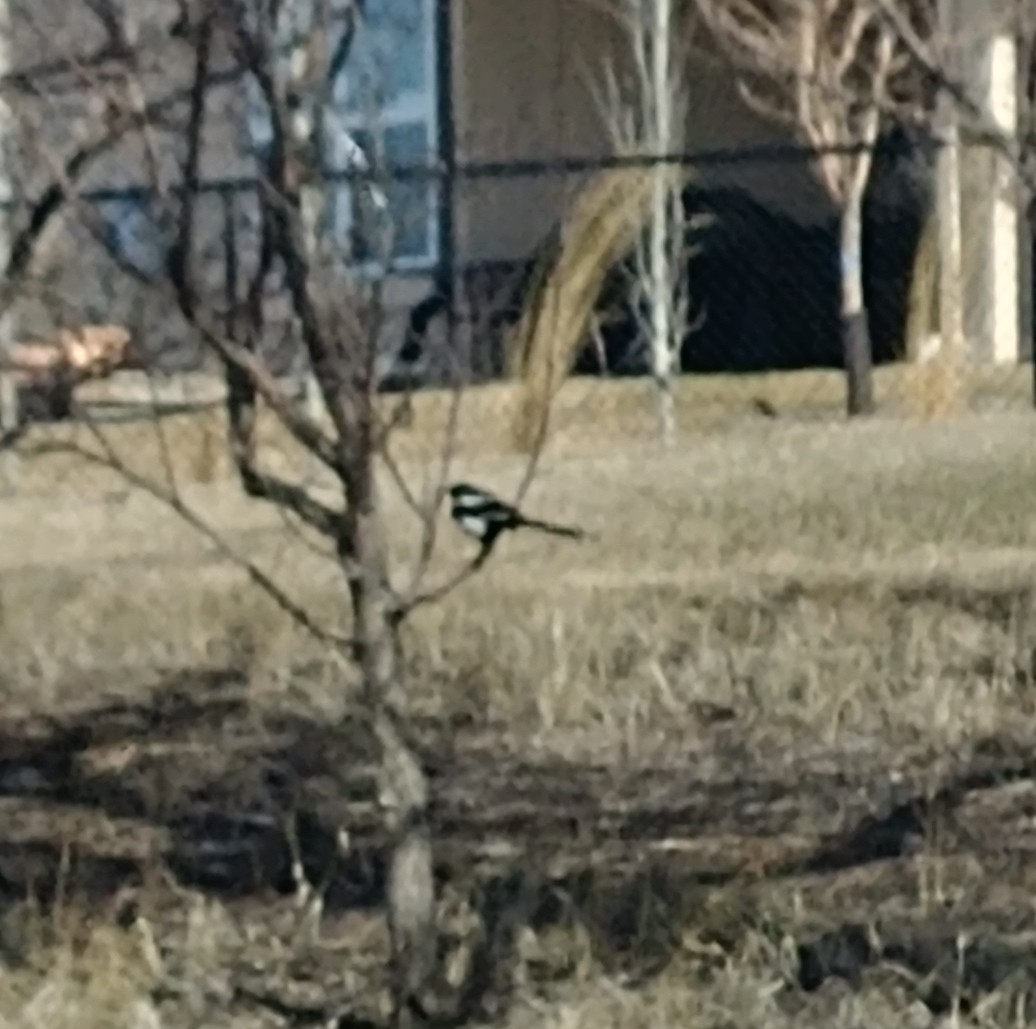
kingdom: Animalia
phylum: Chordata
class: Aves
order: Passeriformes
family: Corvidae
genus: Pica
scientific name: Pica hudsonia
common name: Black-billed magpie
